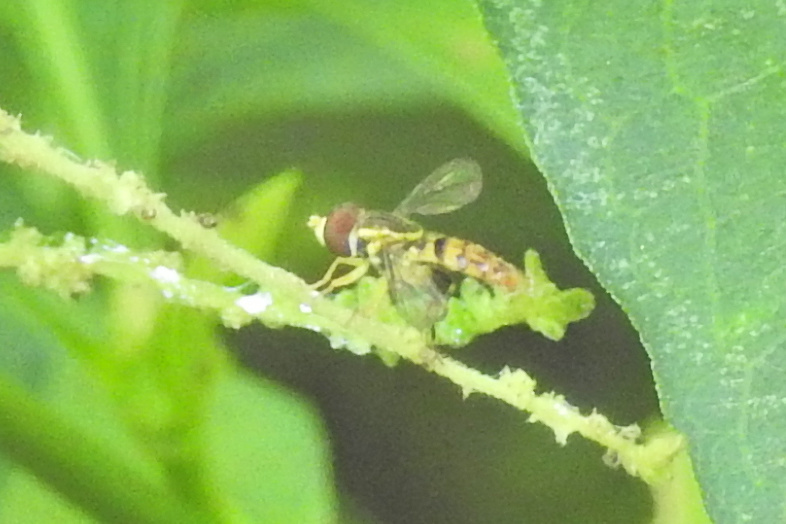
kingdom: Animalia
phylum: Arthropoda
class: Insecta
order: Diptera
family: Syrphidae
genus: Toxomerus
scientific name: Toxomerus geminatus
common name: Eastern calligrapher
